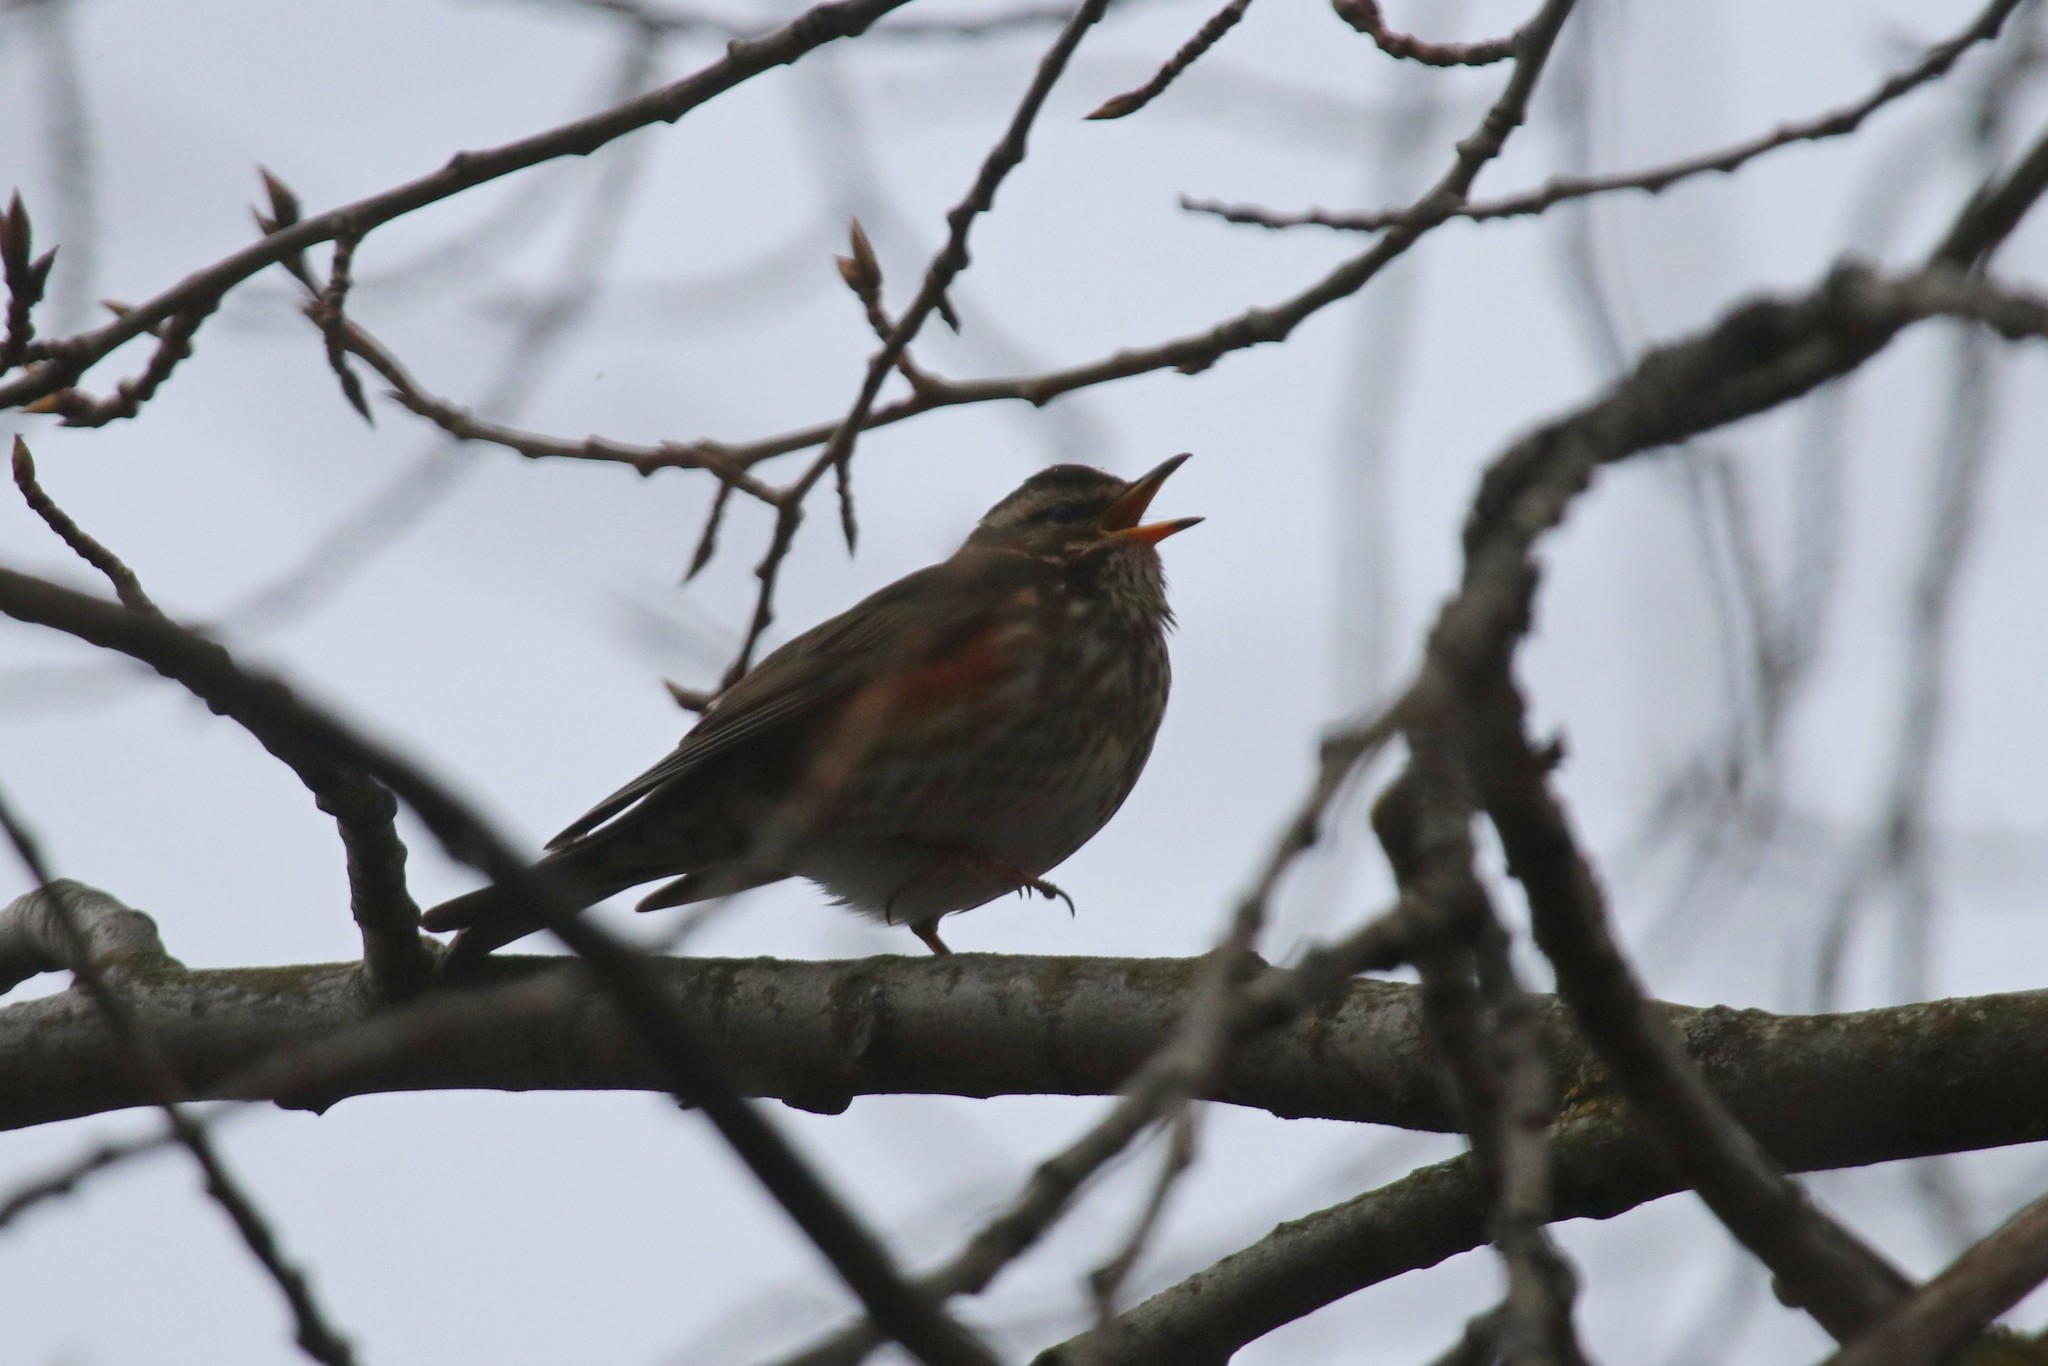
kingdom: Animalia
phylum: Chordata
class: Aves
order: Passeriformes
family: Turdidae
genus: Turdus
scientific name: Turdus iliacus
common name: Redwing
